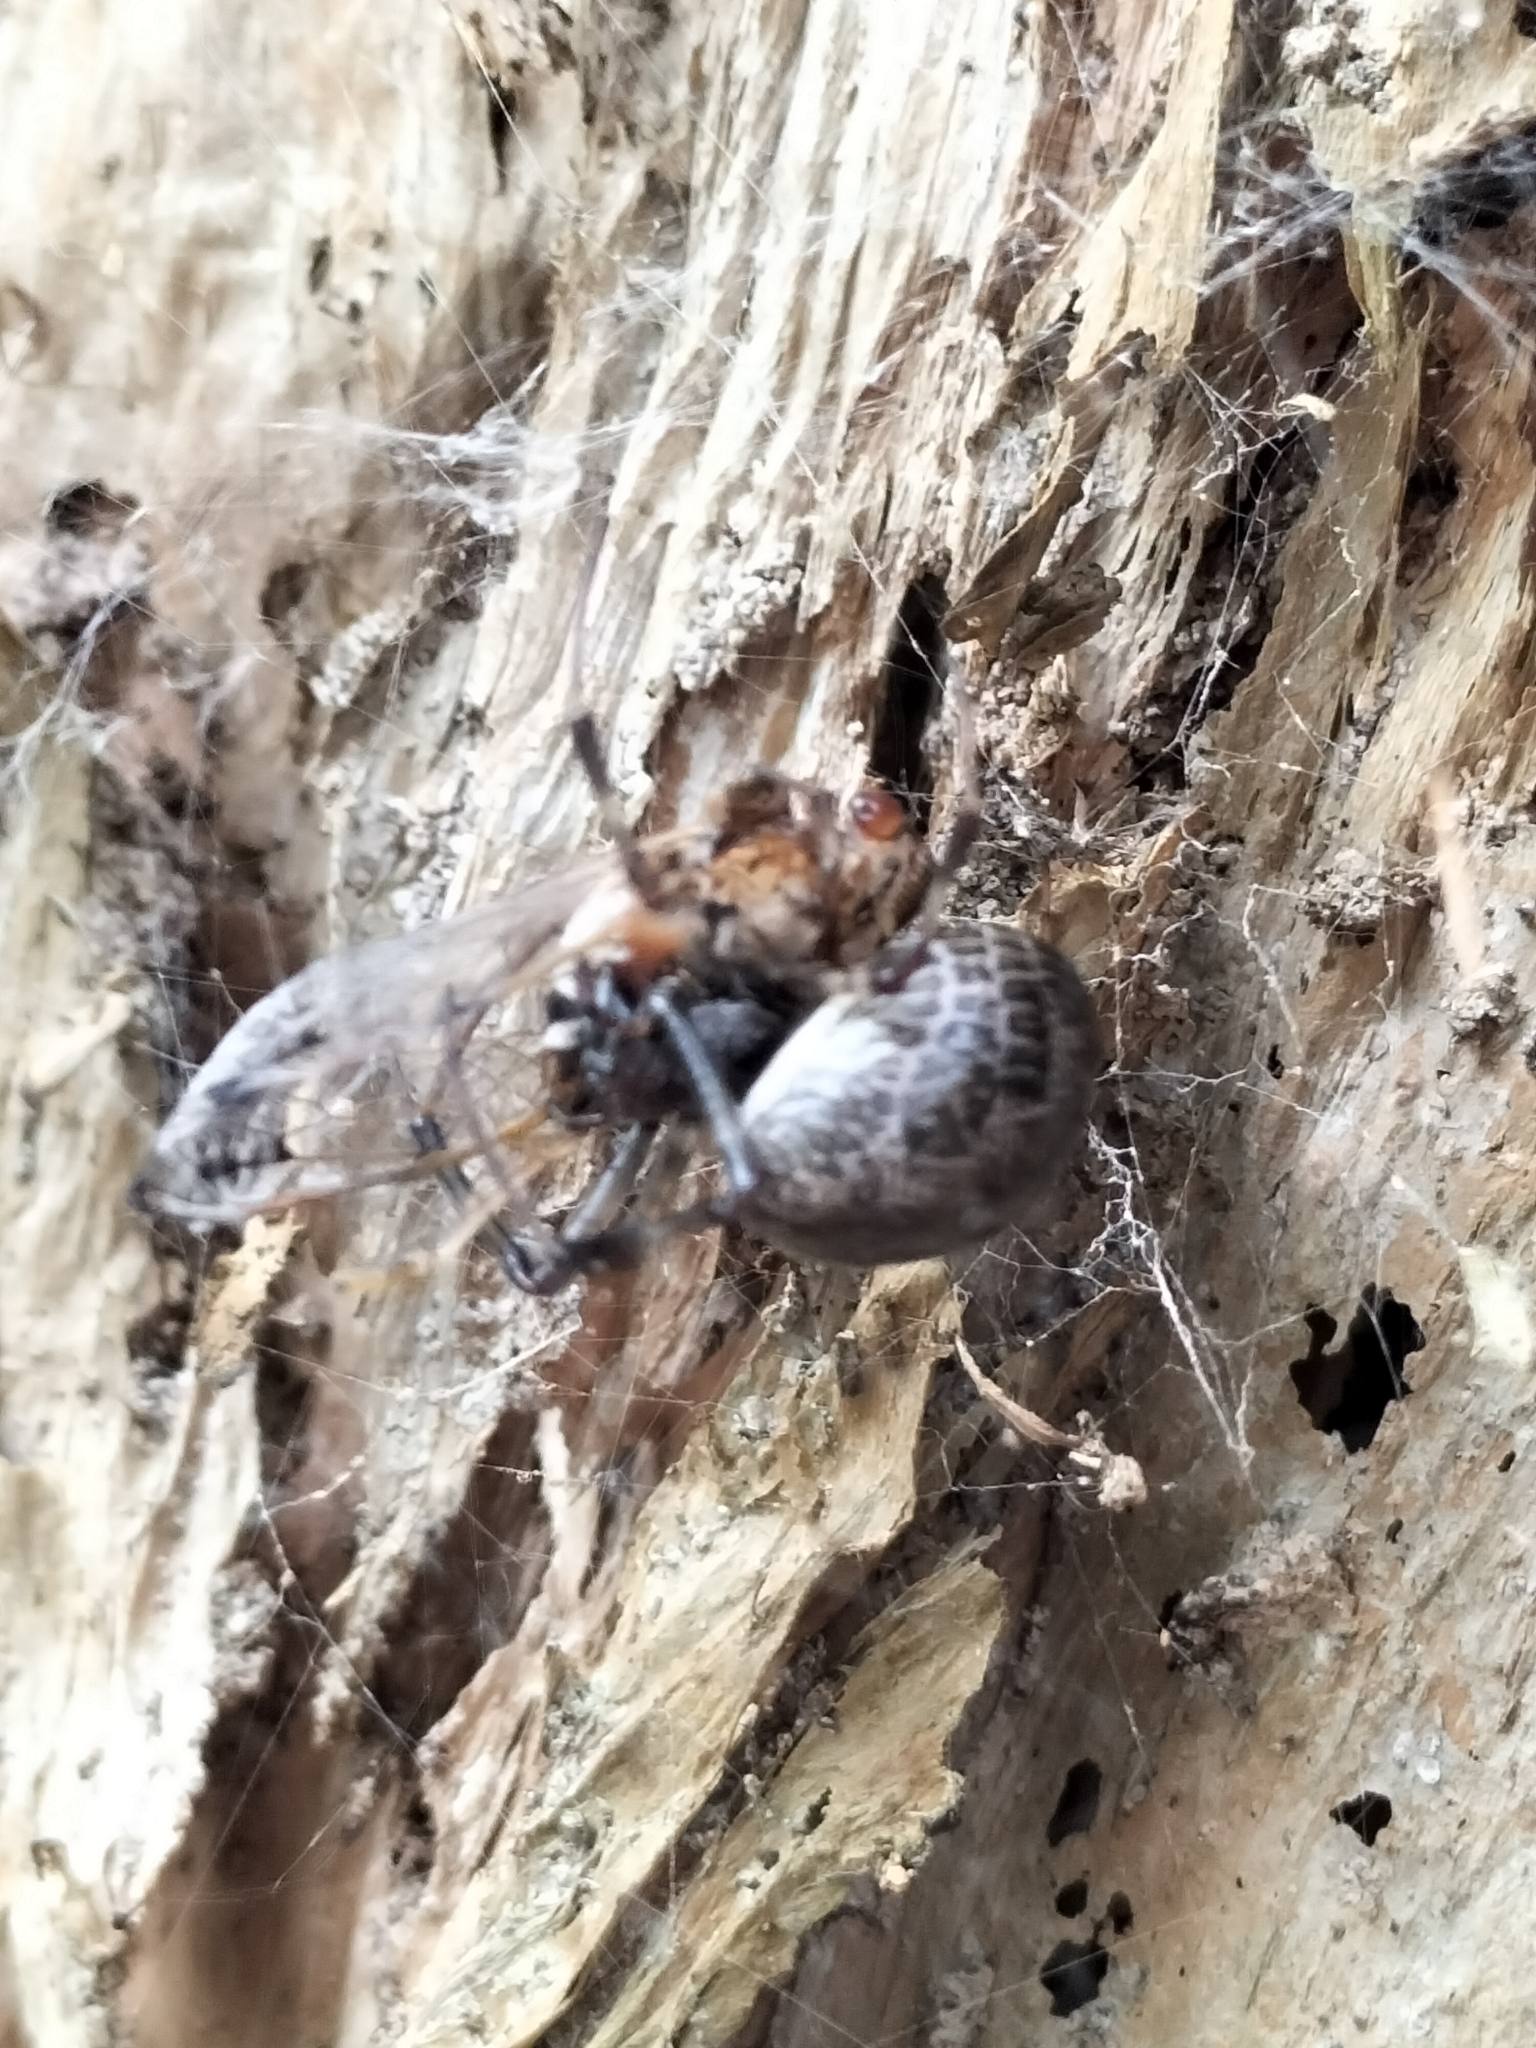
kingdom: Animalia
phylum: Arthropoda
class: Arachnida
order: Araneae
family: Araneidae
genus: Nephilengys
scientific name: Nephilengys papuana
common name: Papuan hermit spider
